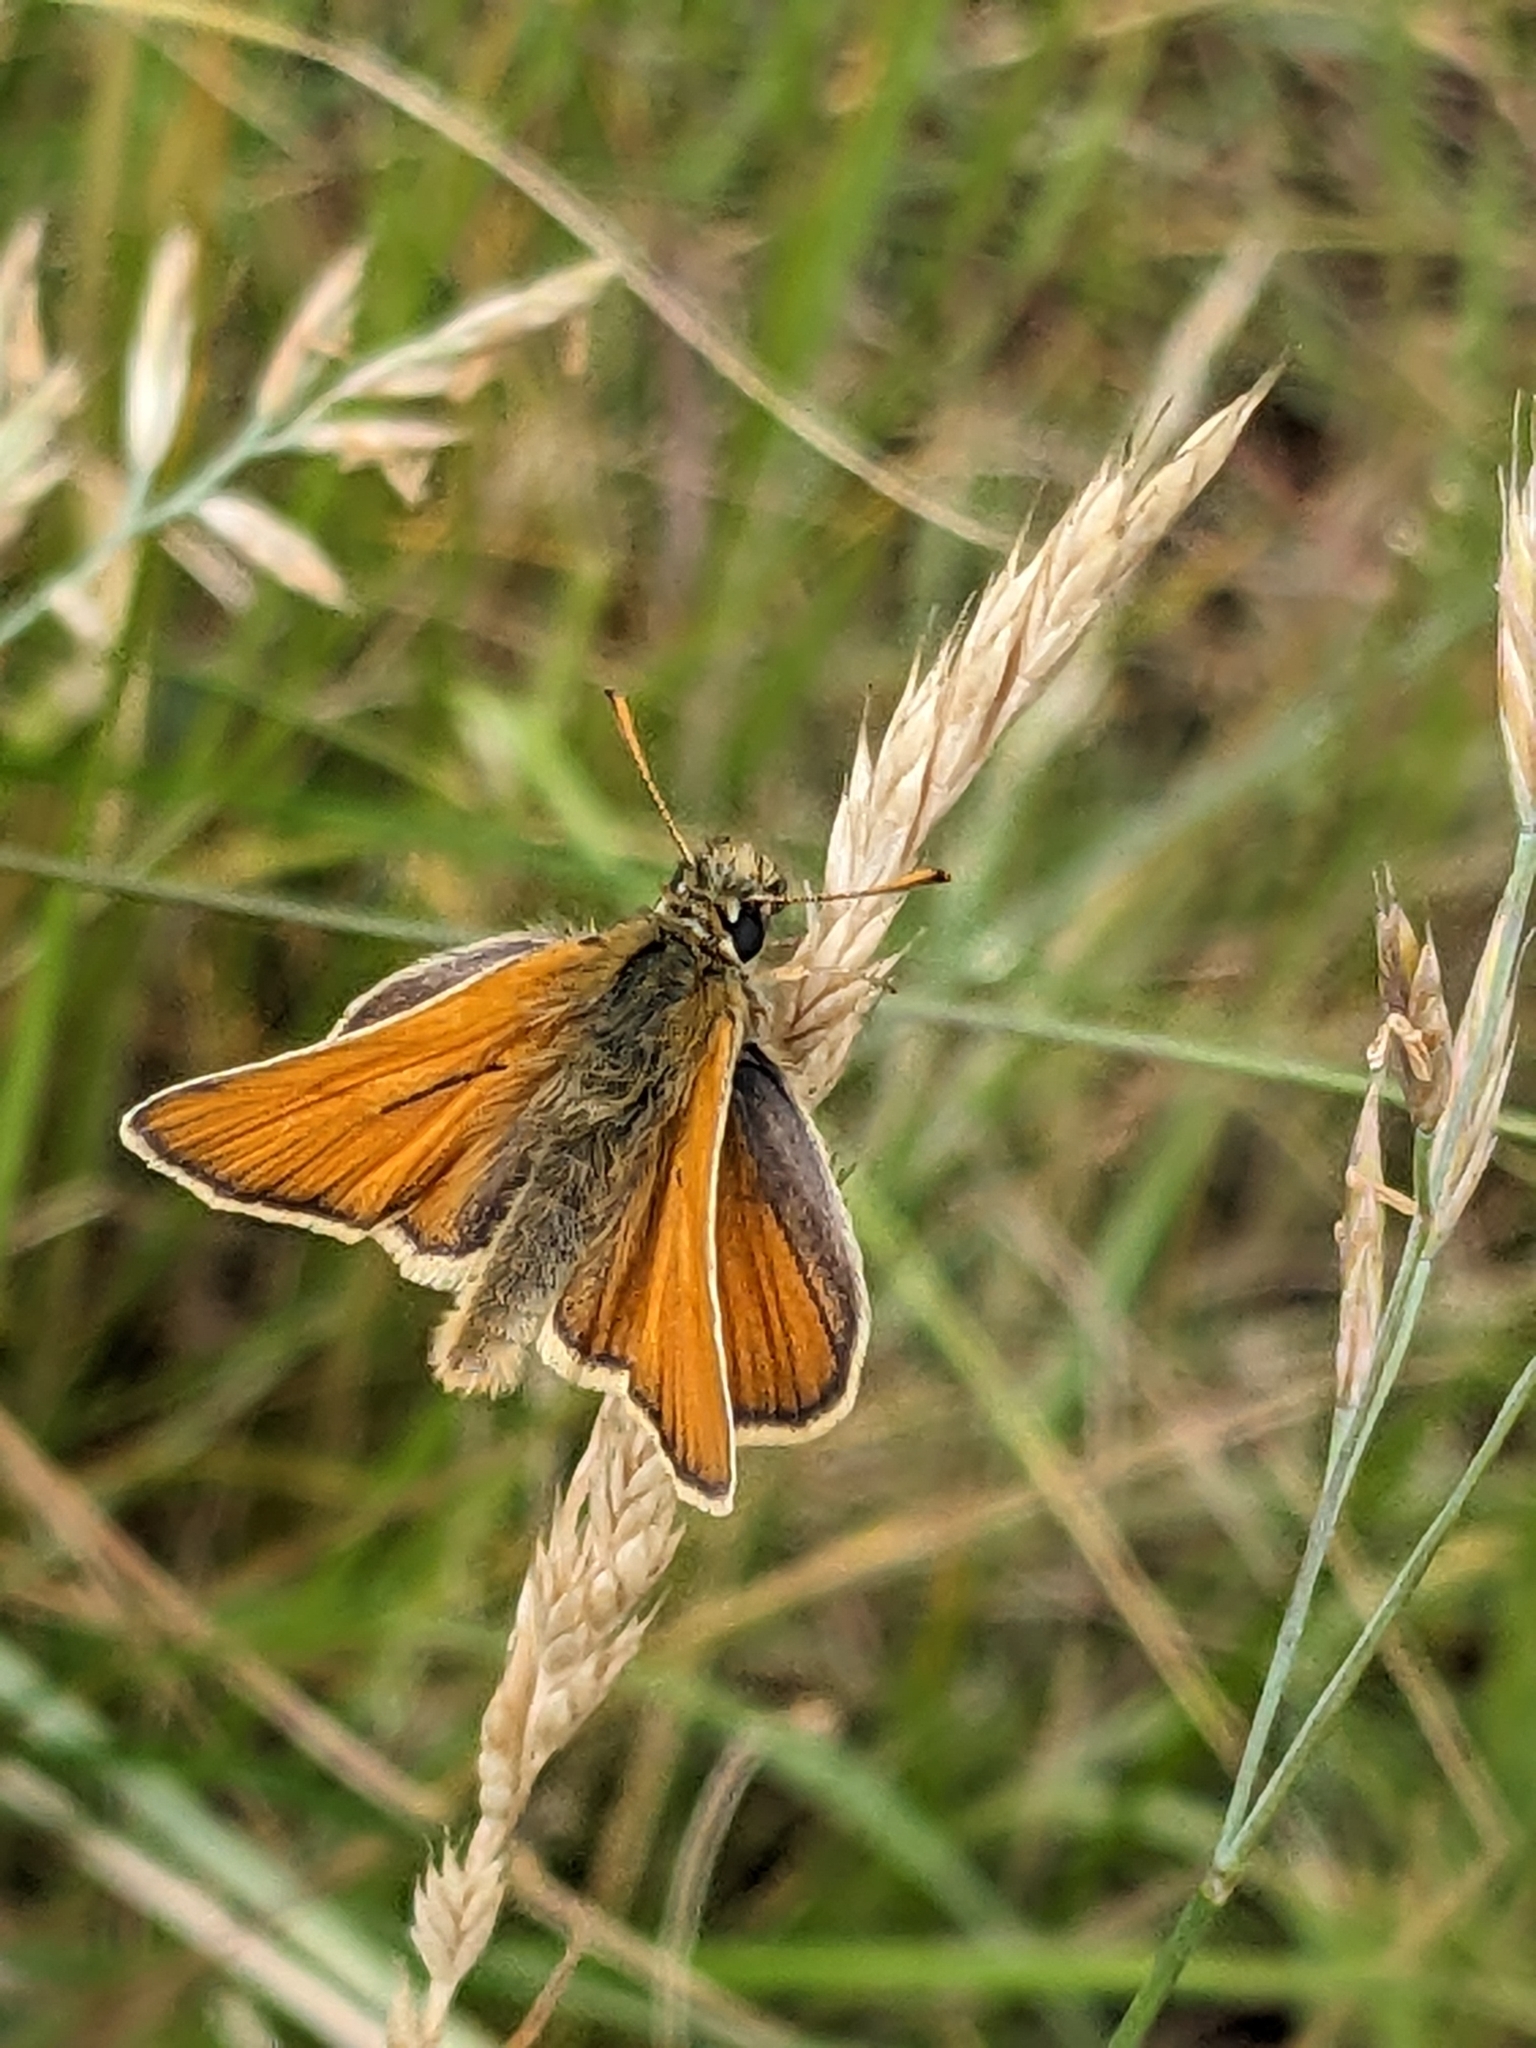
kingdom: Animalia
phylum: Arthropoda
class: Insecta
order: Lepidoptera
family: Hesperiidae
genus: Thymelicus
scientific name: Thymelicus sylvestris
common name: Small skipper
